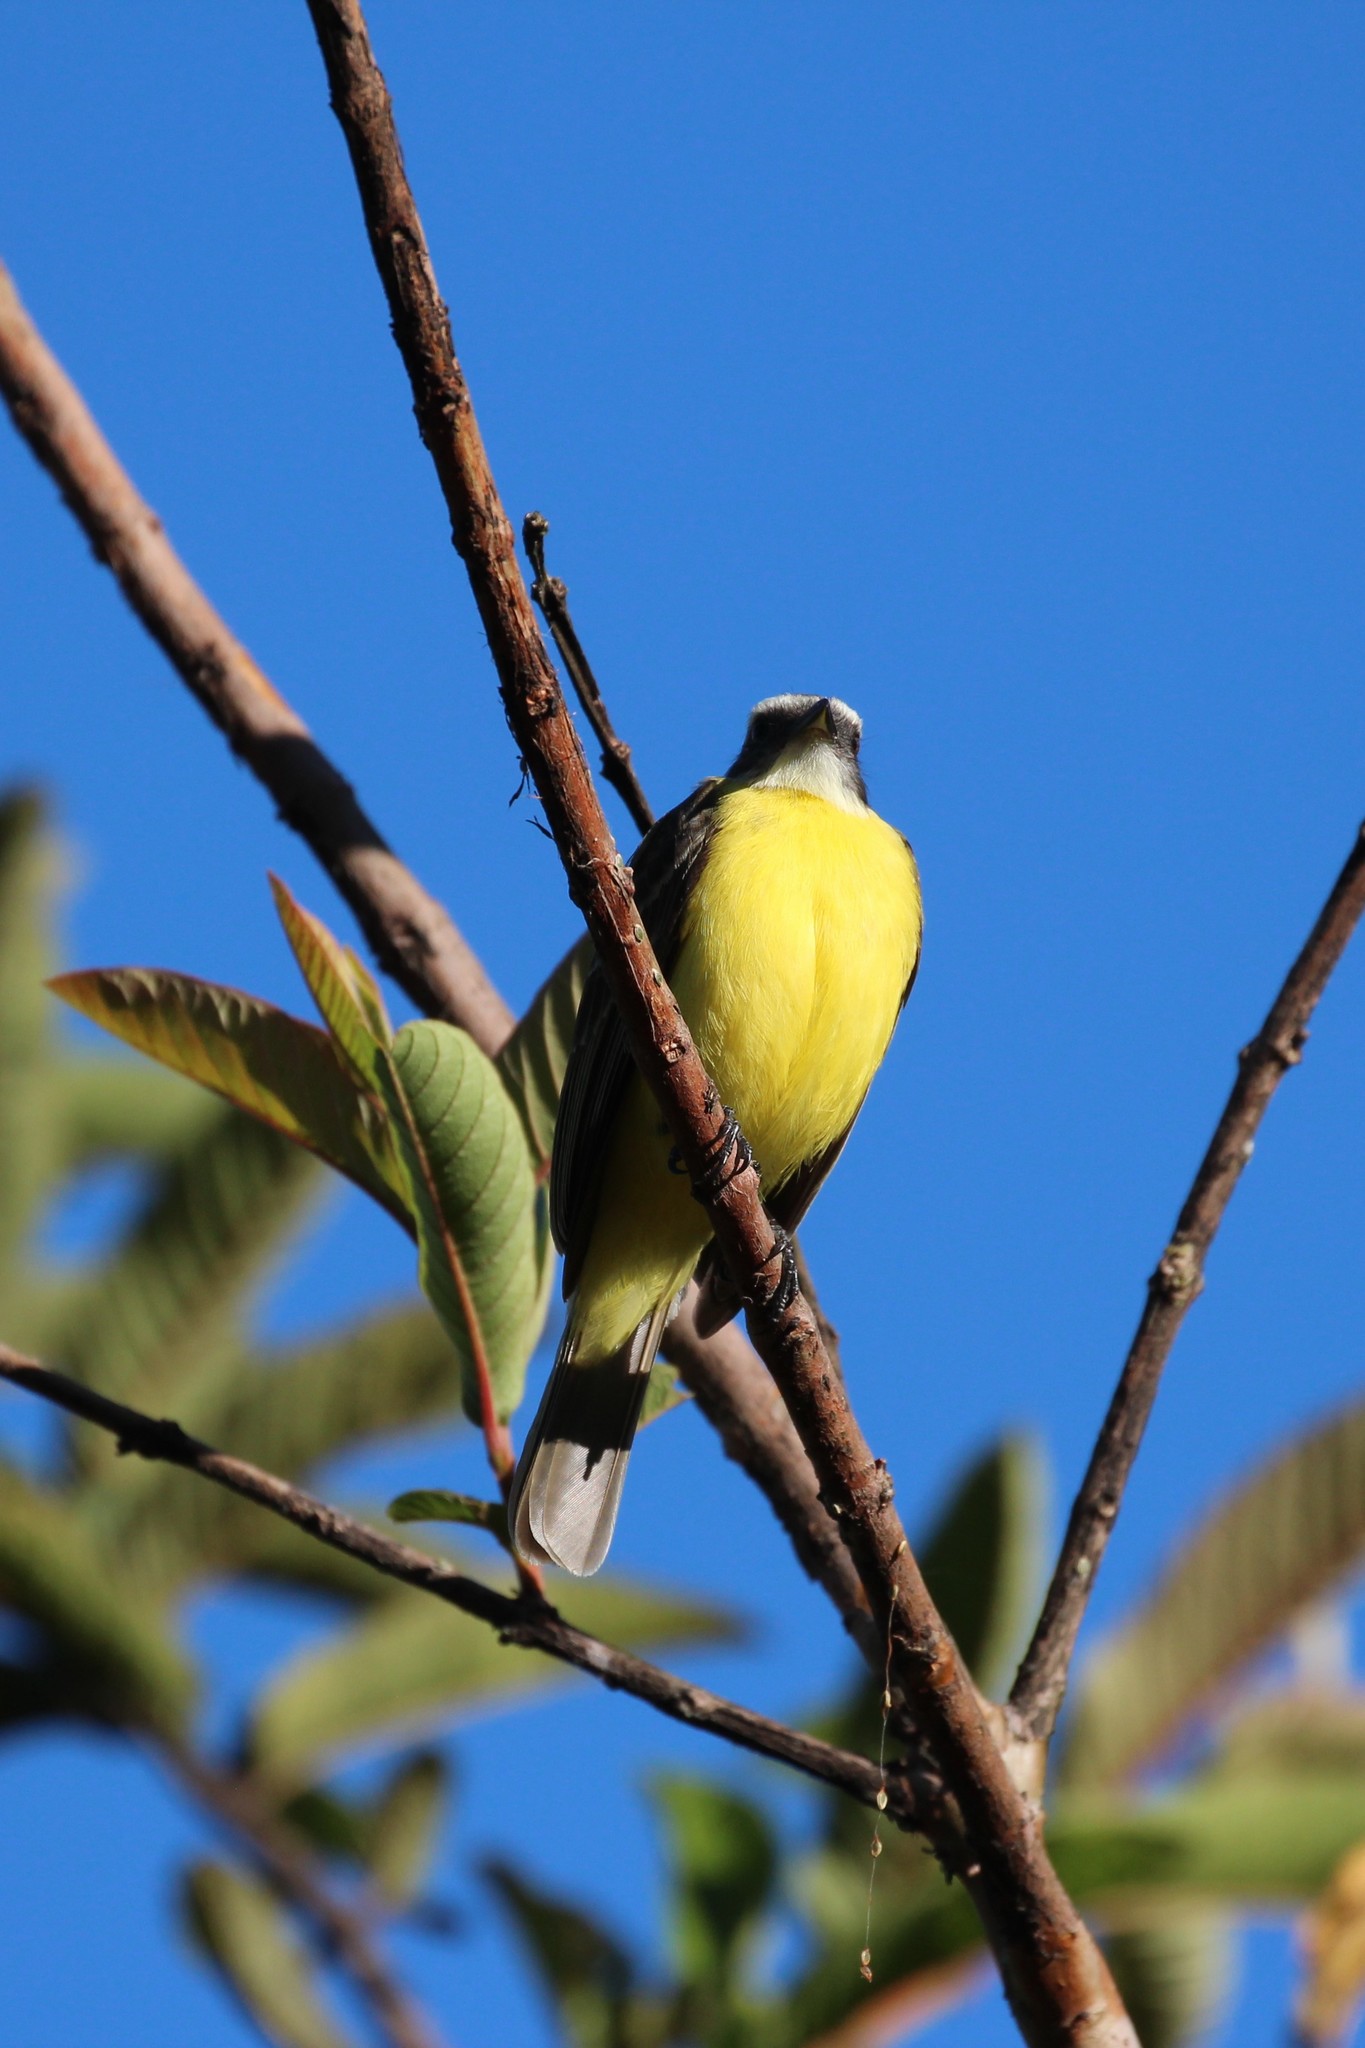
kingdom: Animalia
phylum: Chordata
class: Aves
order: Passeriformes
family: Tyrannidae
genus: Myiozetetes
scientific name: Myiozetetes similis
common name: Social flycatcher
